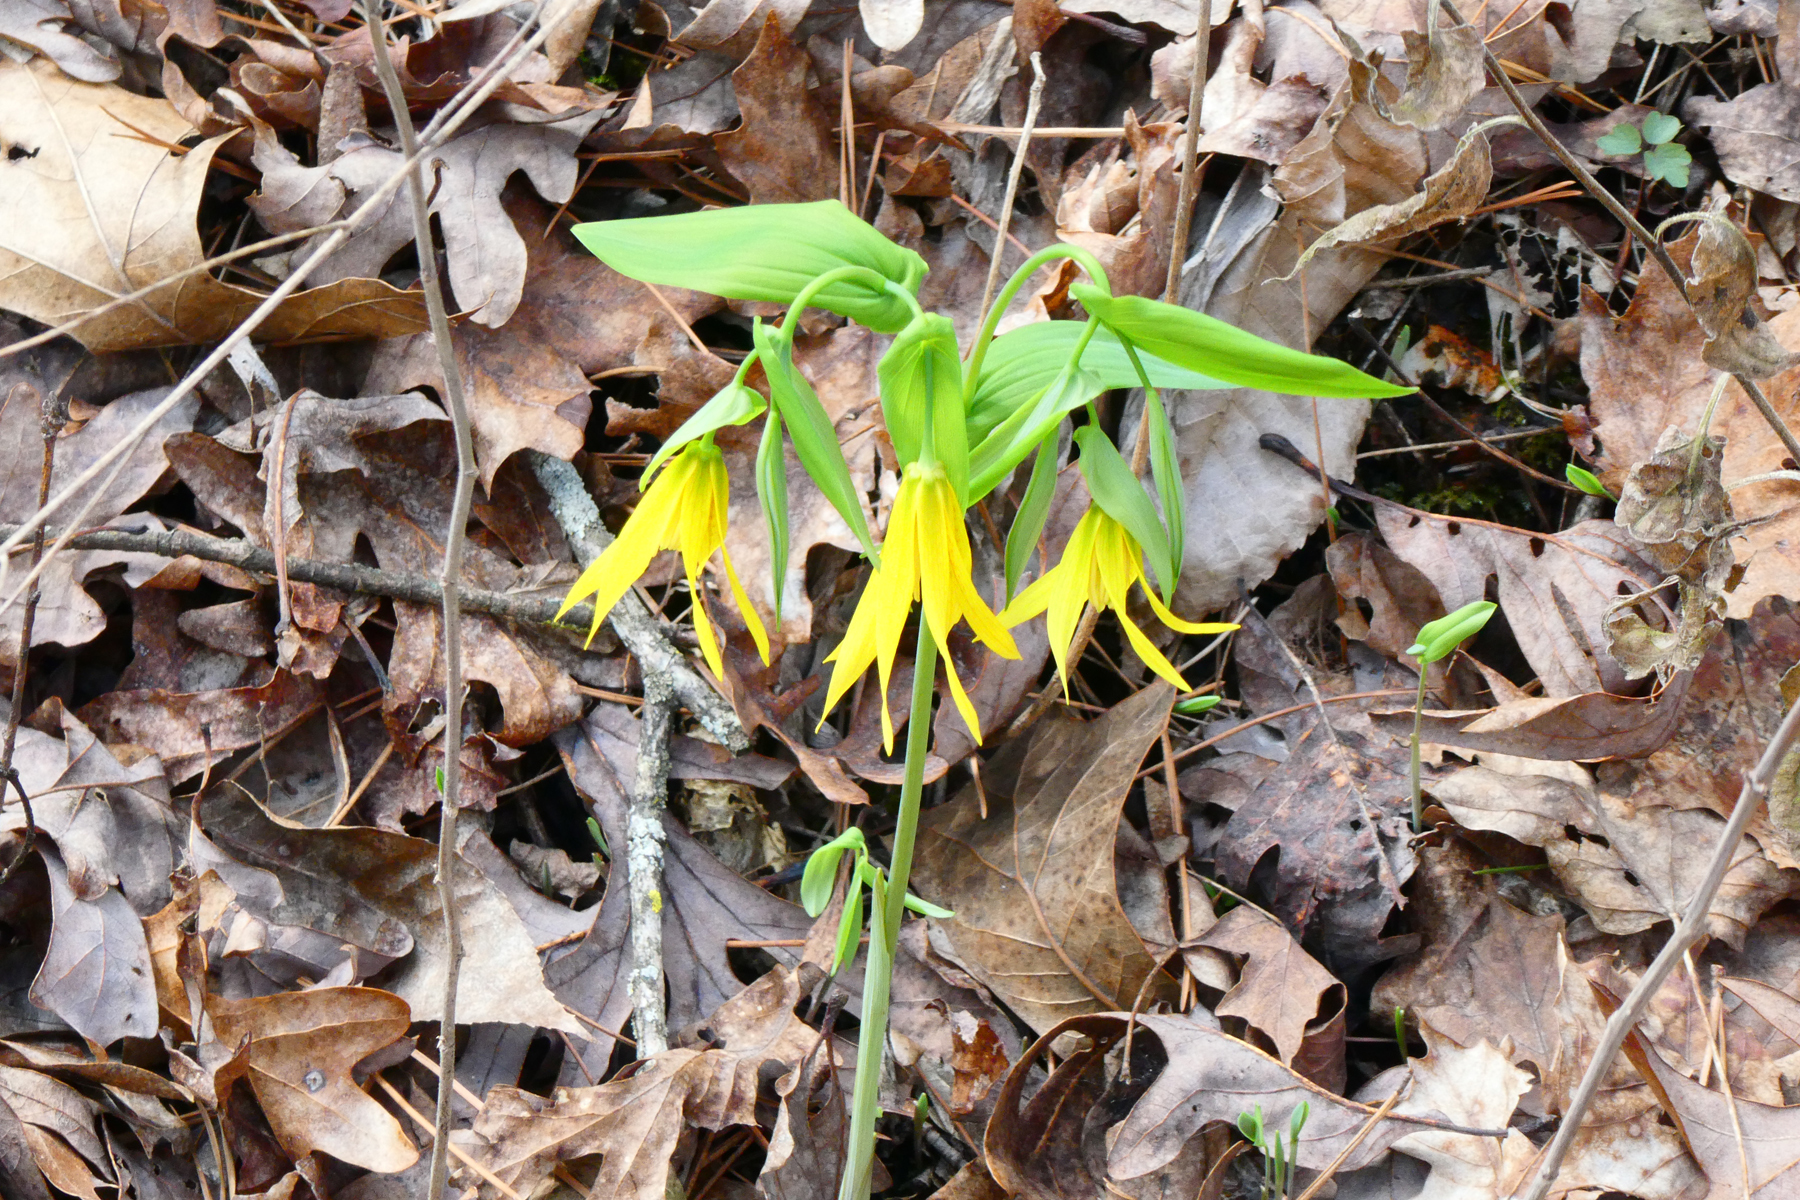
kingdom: Plantae
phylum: Tracheophyta
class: Liliopsida
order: Liliales
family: Colchicaceae
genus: Uvularia
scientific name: Uvularia grandiflora
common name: Bellwort
